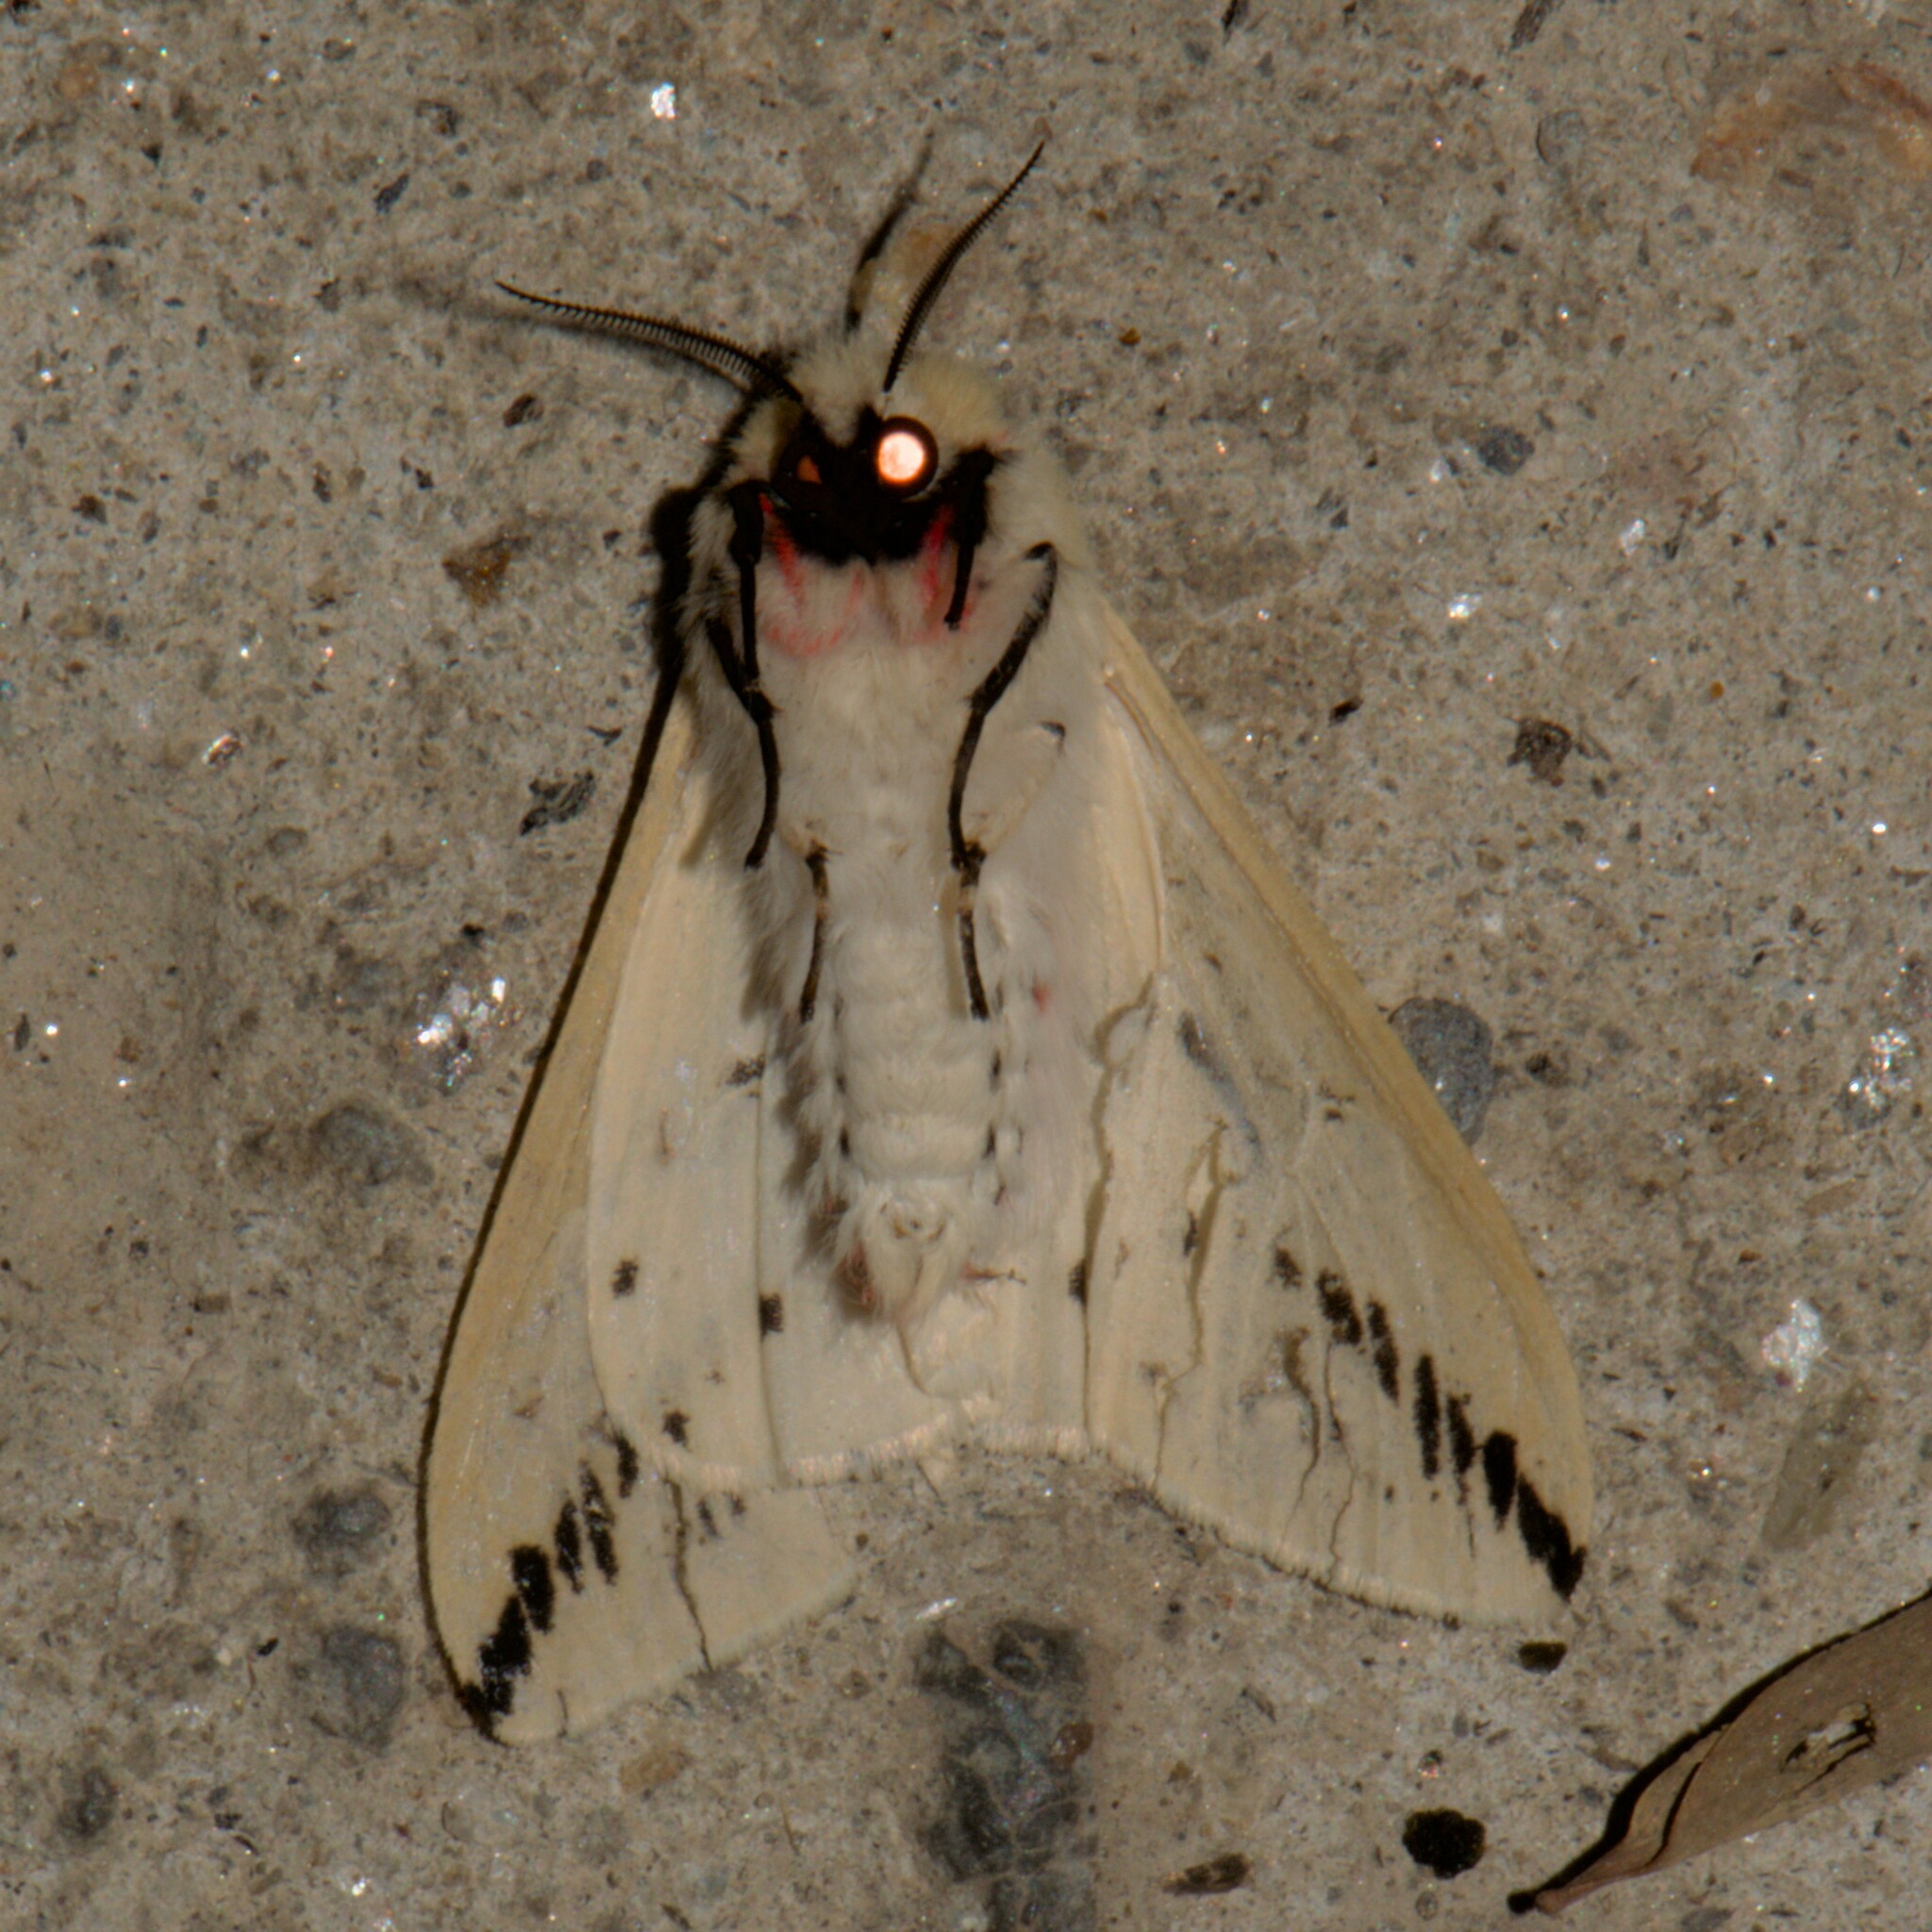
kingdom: Animalia
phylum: Arthropoda
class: Insecta
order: Lepidoptera
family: Erebidae
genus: Lemyra
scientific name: Lemyra stigmata
